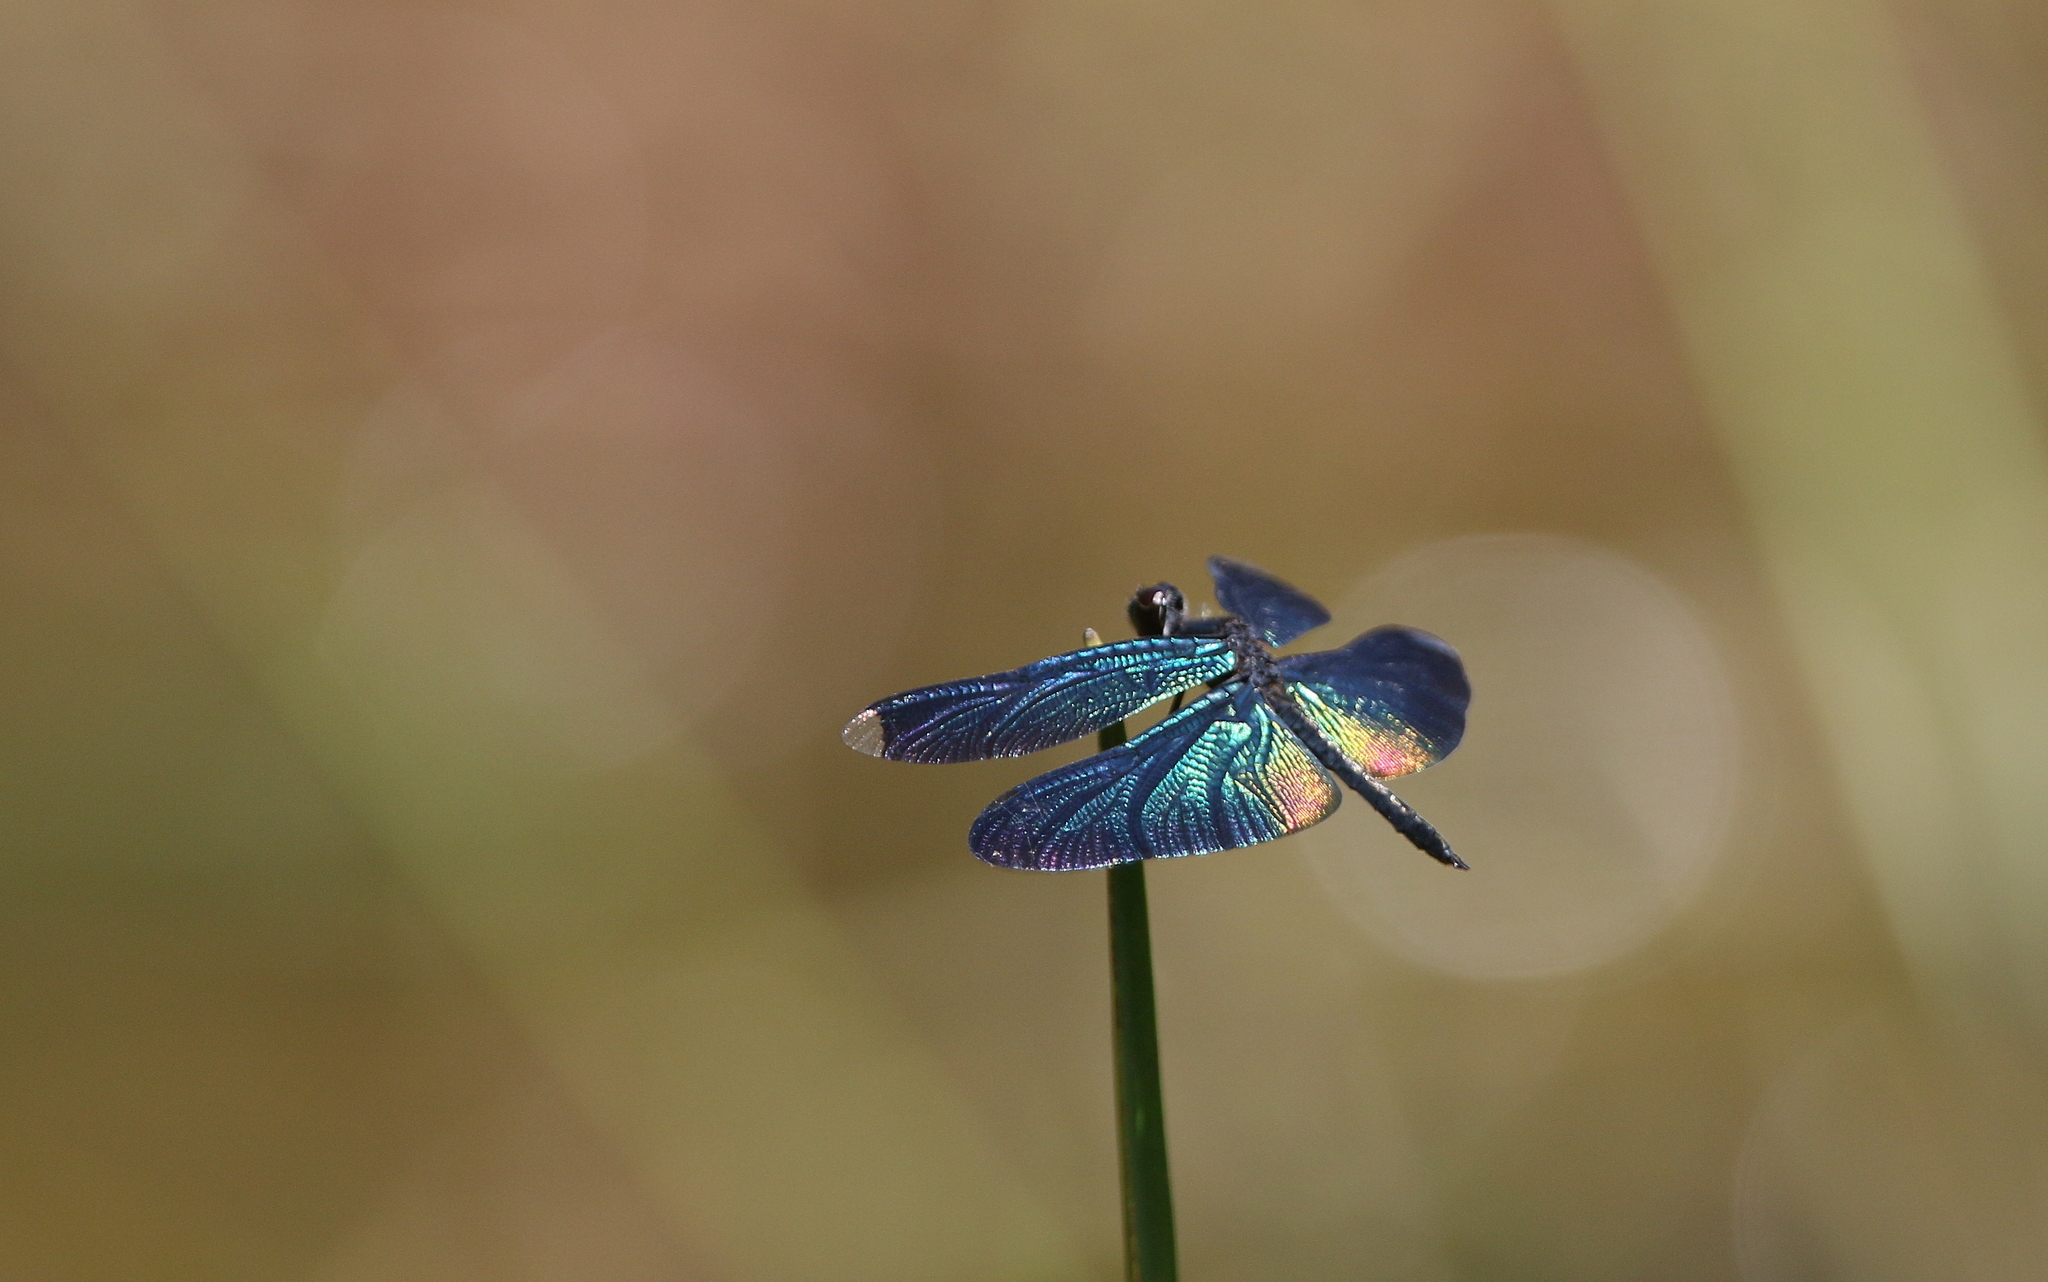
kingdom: Animalia
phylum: Arthropoda
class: Insecta
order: Odonata
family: Libellulidae
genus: Rhyothemis
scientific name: Rhyothemis plutonia
